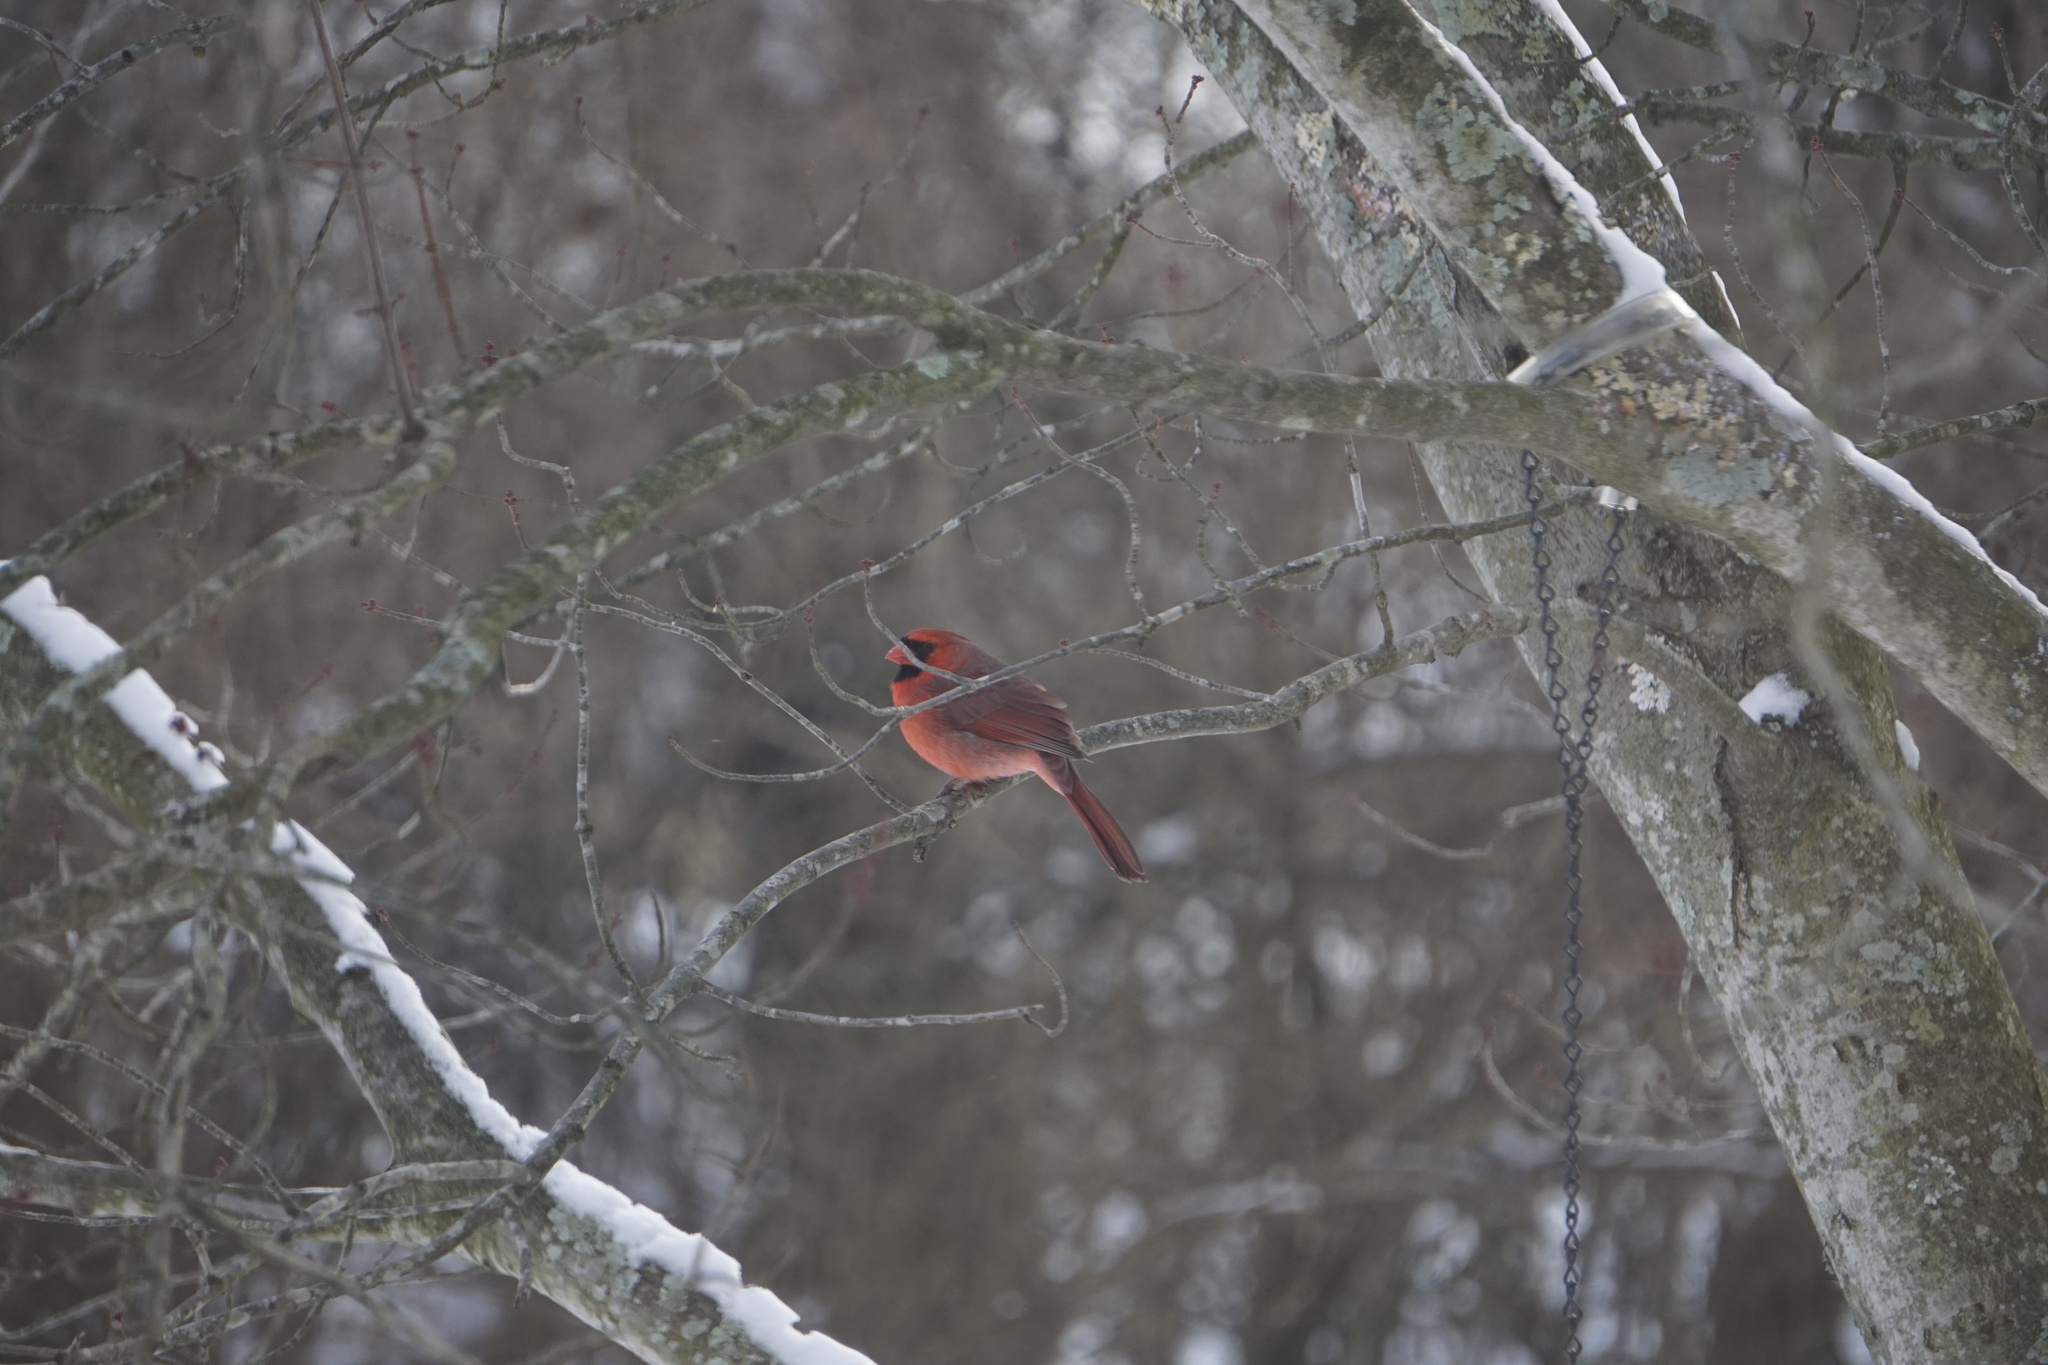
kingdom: Animalia
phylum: Chordata
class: Aves
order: Passeriformes
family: Cardinalidae
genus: Cardinalis
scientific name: Cardinalis cardinalis
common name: Northern cardinal
